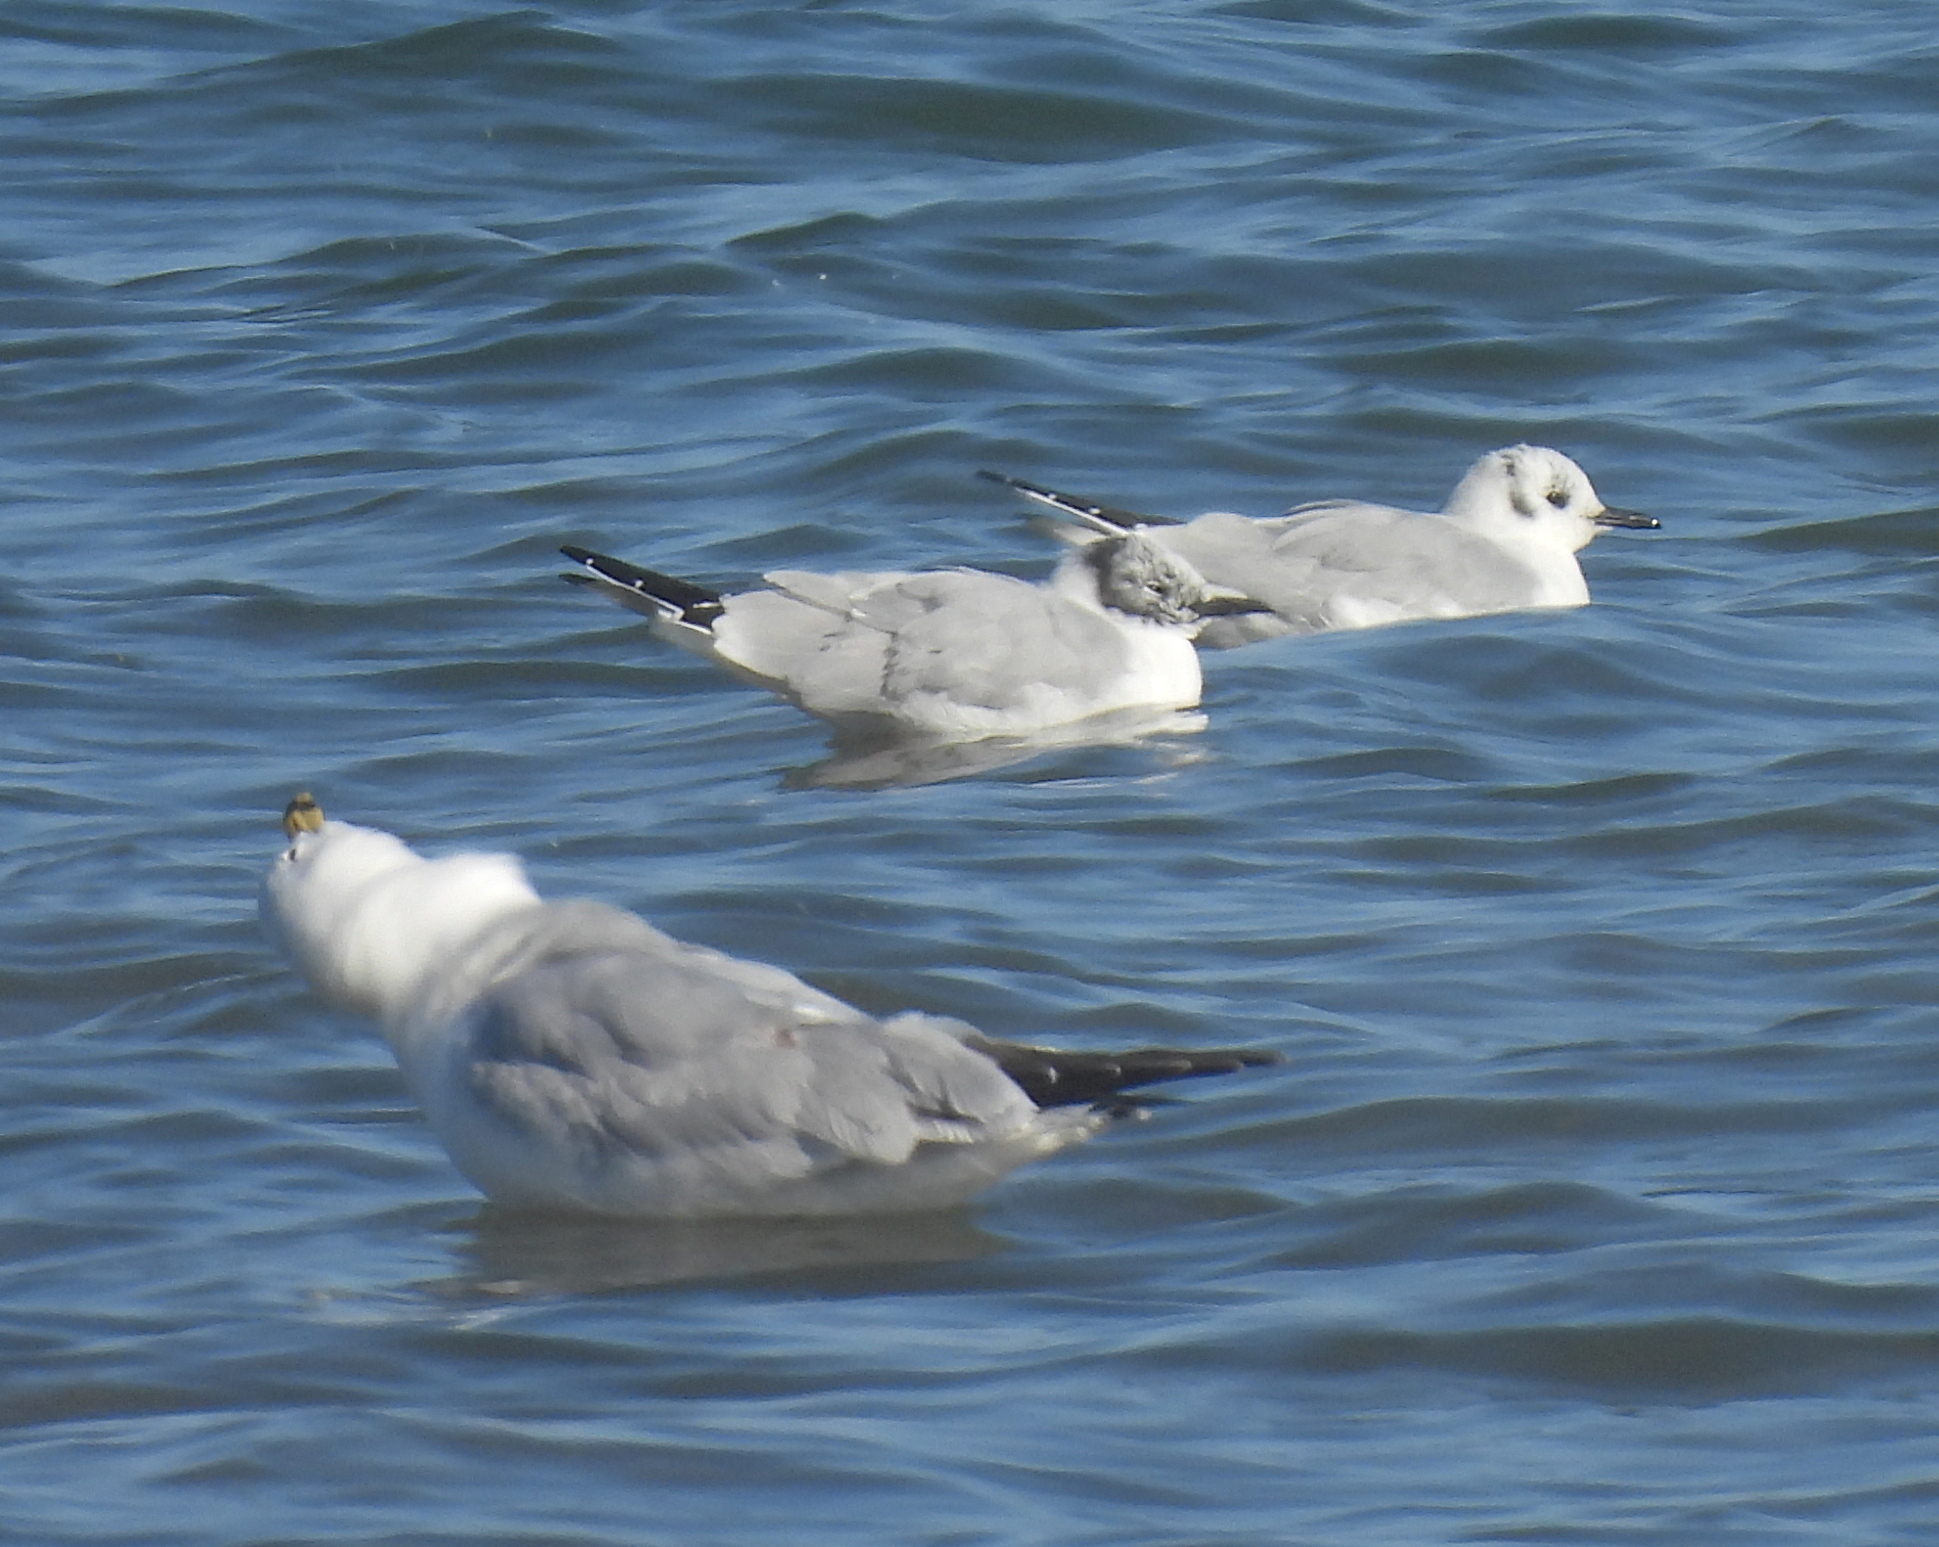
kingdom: Animalia
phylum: Chordata
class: Aves
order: Charadriiformes
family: Laridae
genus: Chroicocephalus
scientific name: Chroicocephalus philadelphia
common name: Bonaparte's gull
